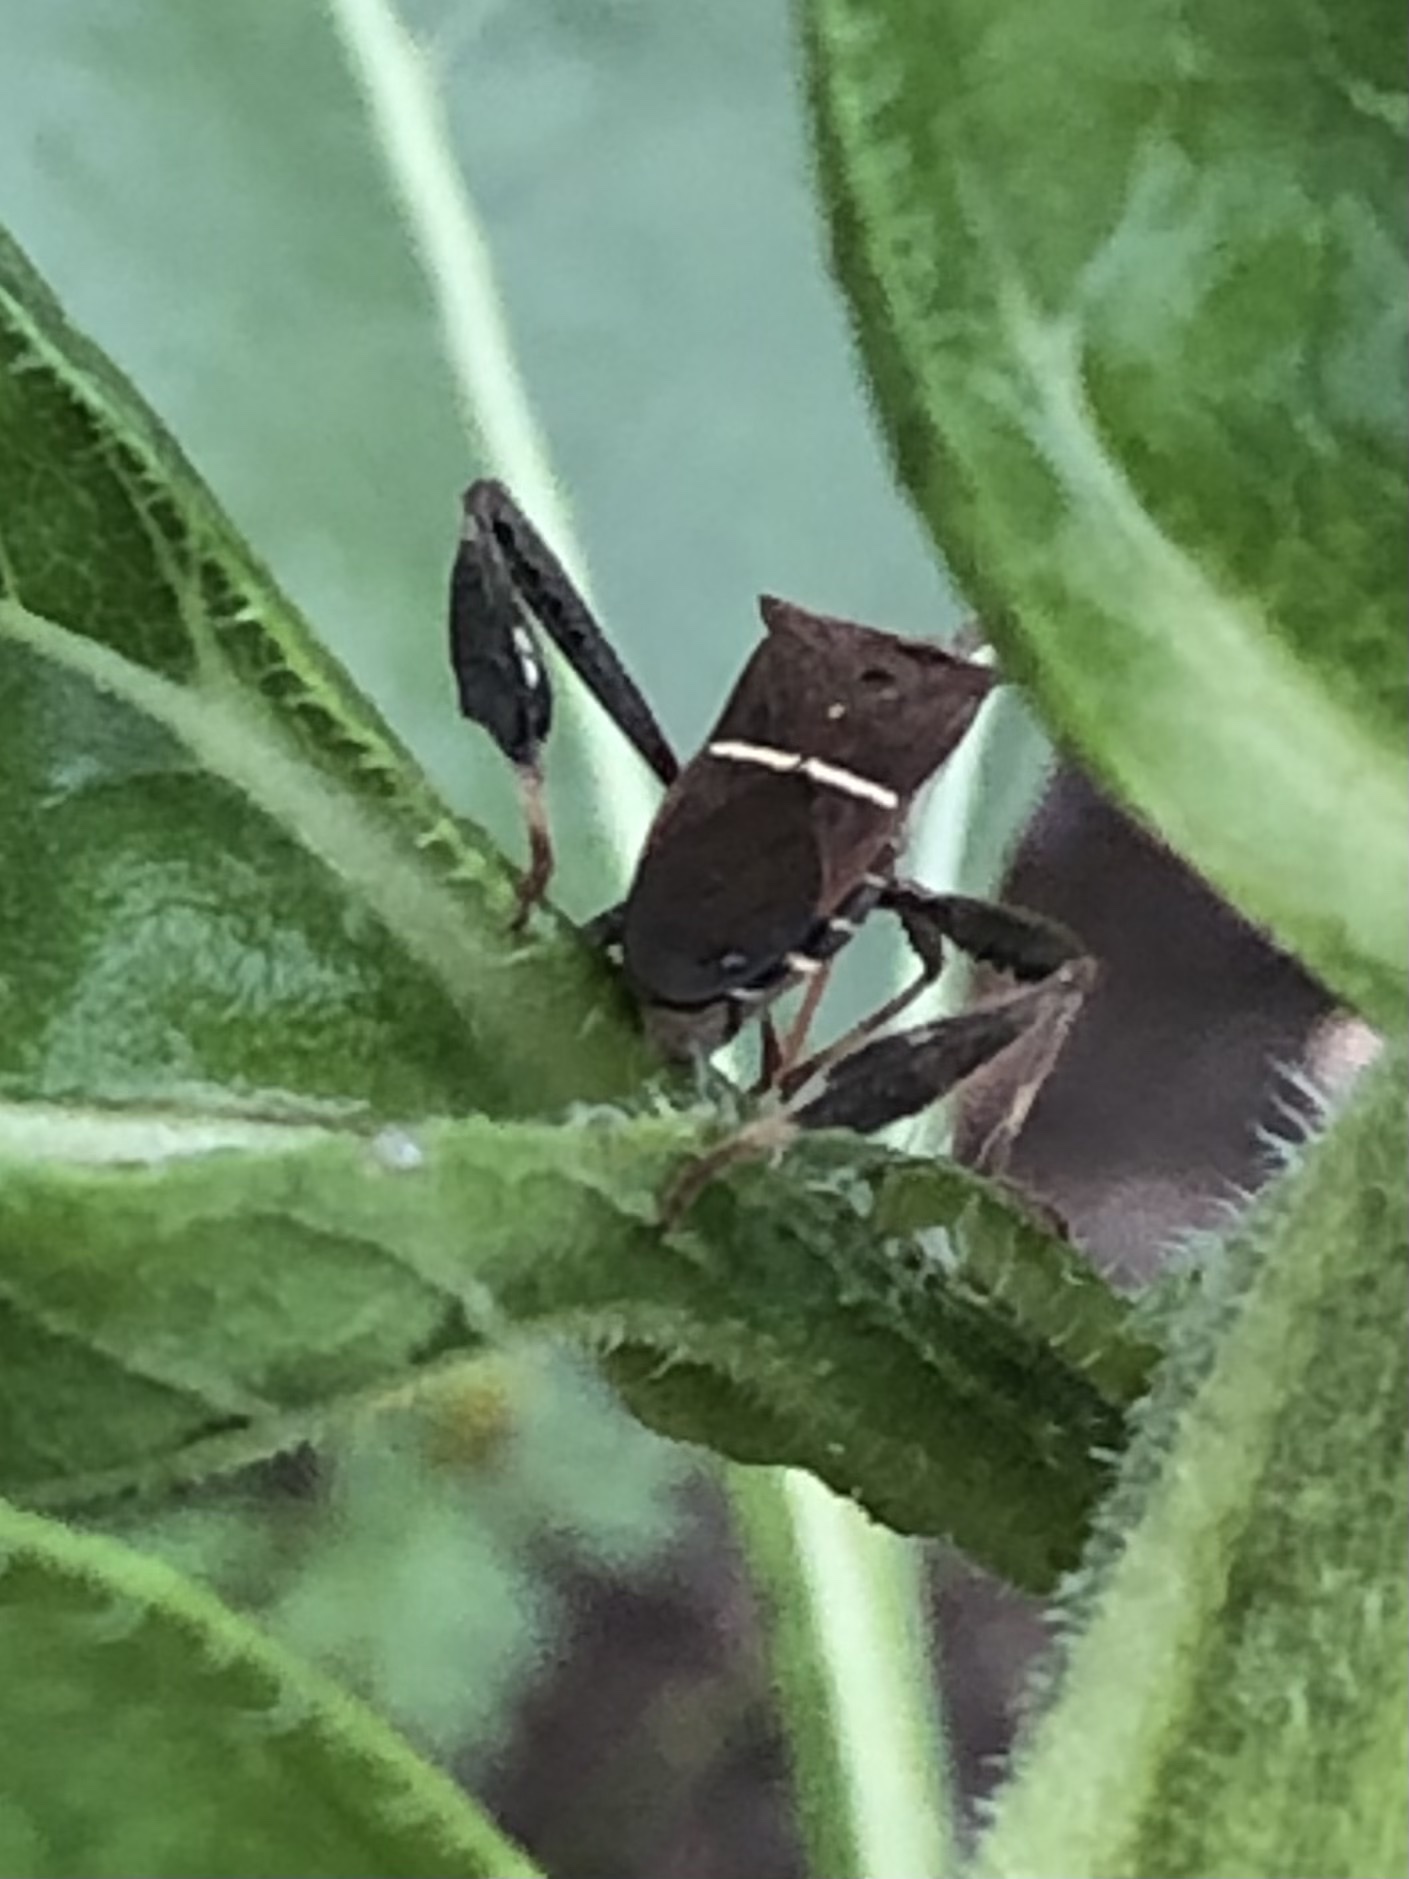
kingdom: Animalia
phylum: Arthropoda
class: Insecta
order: Hemiptera
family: Coreidae
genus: Leptoglossus
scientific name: Leptoglossus phyllopus
